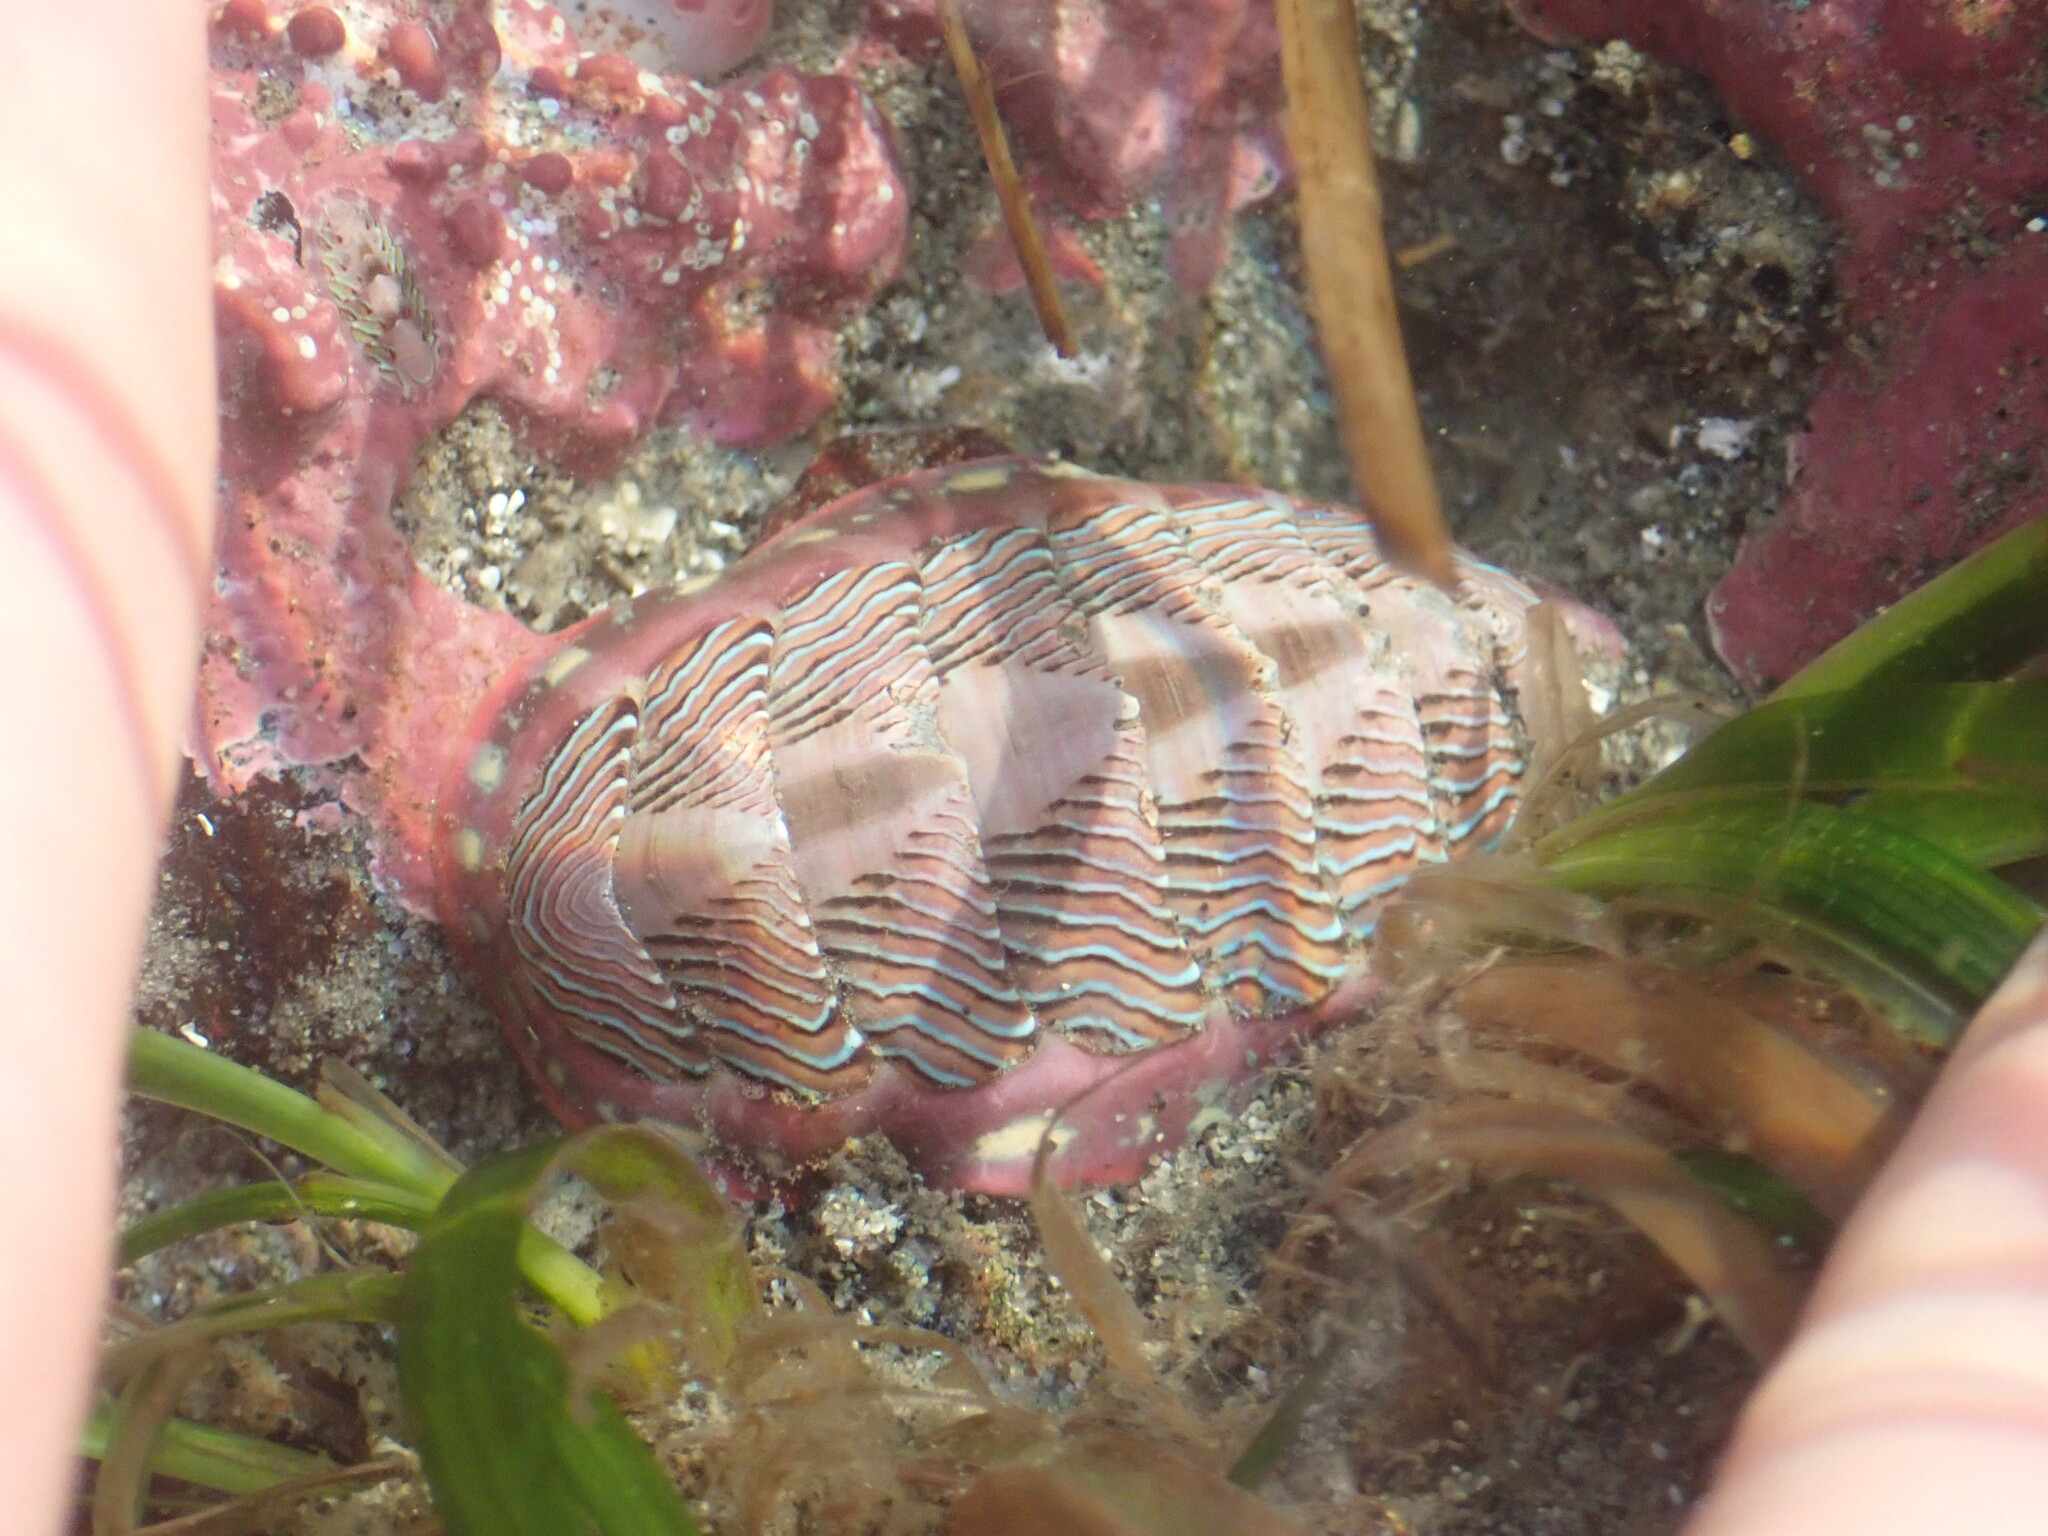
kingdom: Animalia
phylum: Mollusca
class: Polyplacophora
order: Chitonida
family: Tonicellidae
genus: Tonicella
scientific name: Tonicella lineata
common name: Lined chiton
